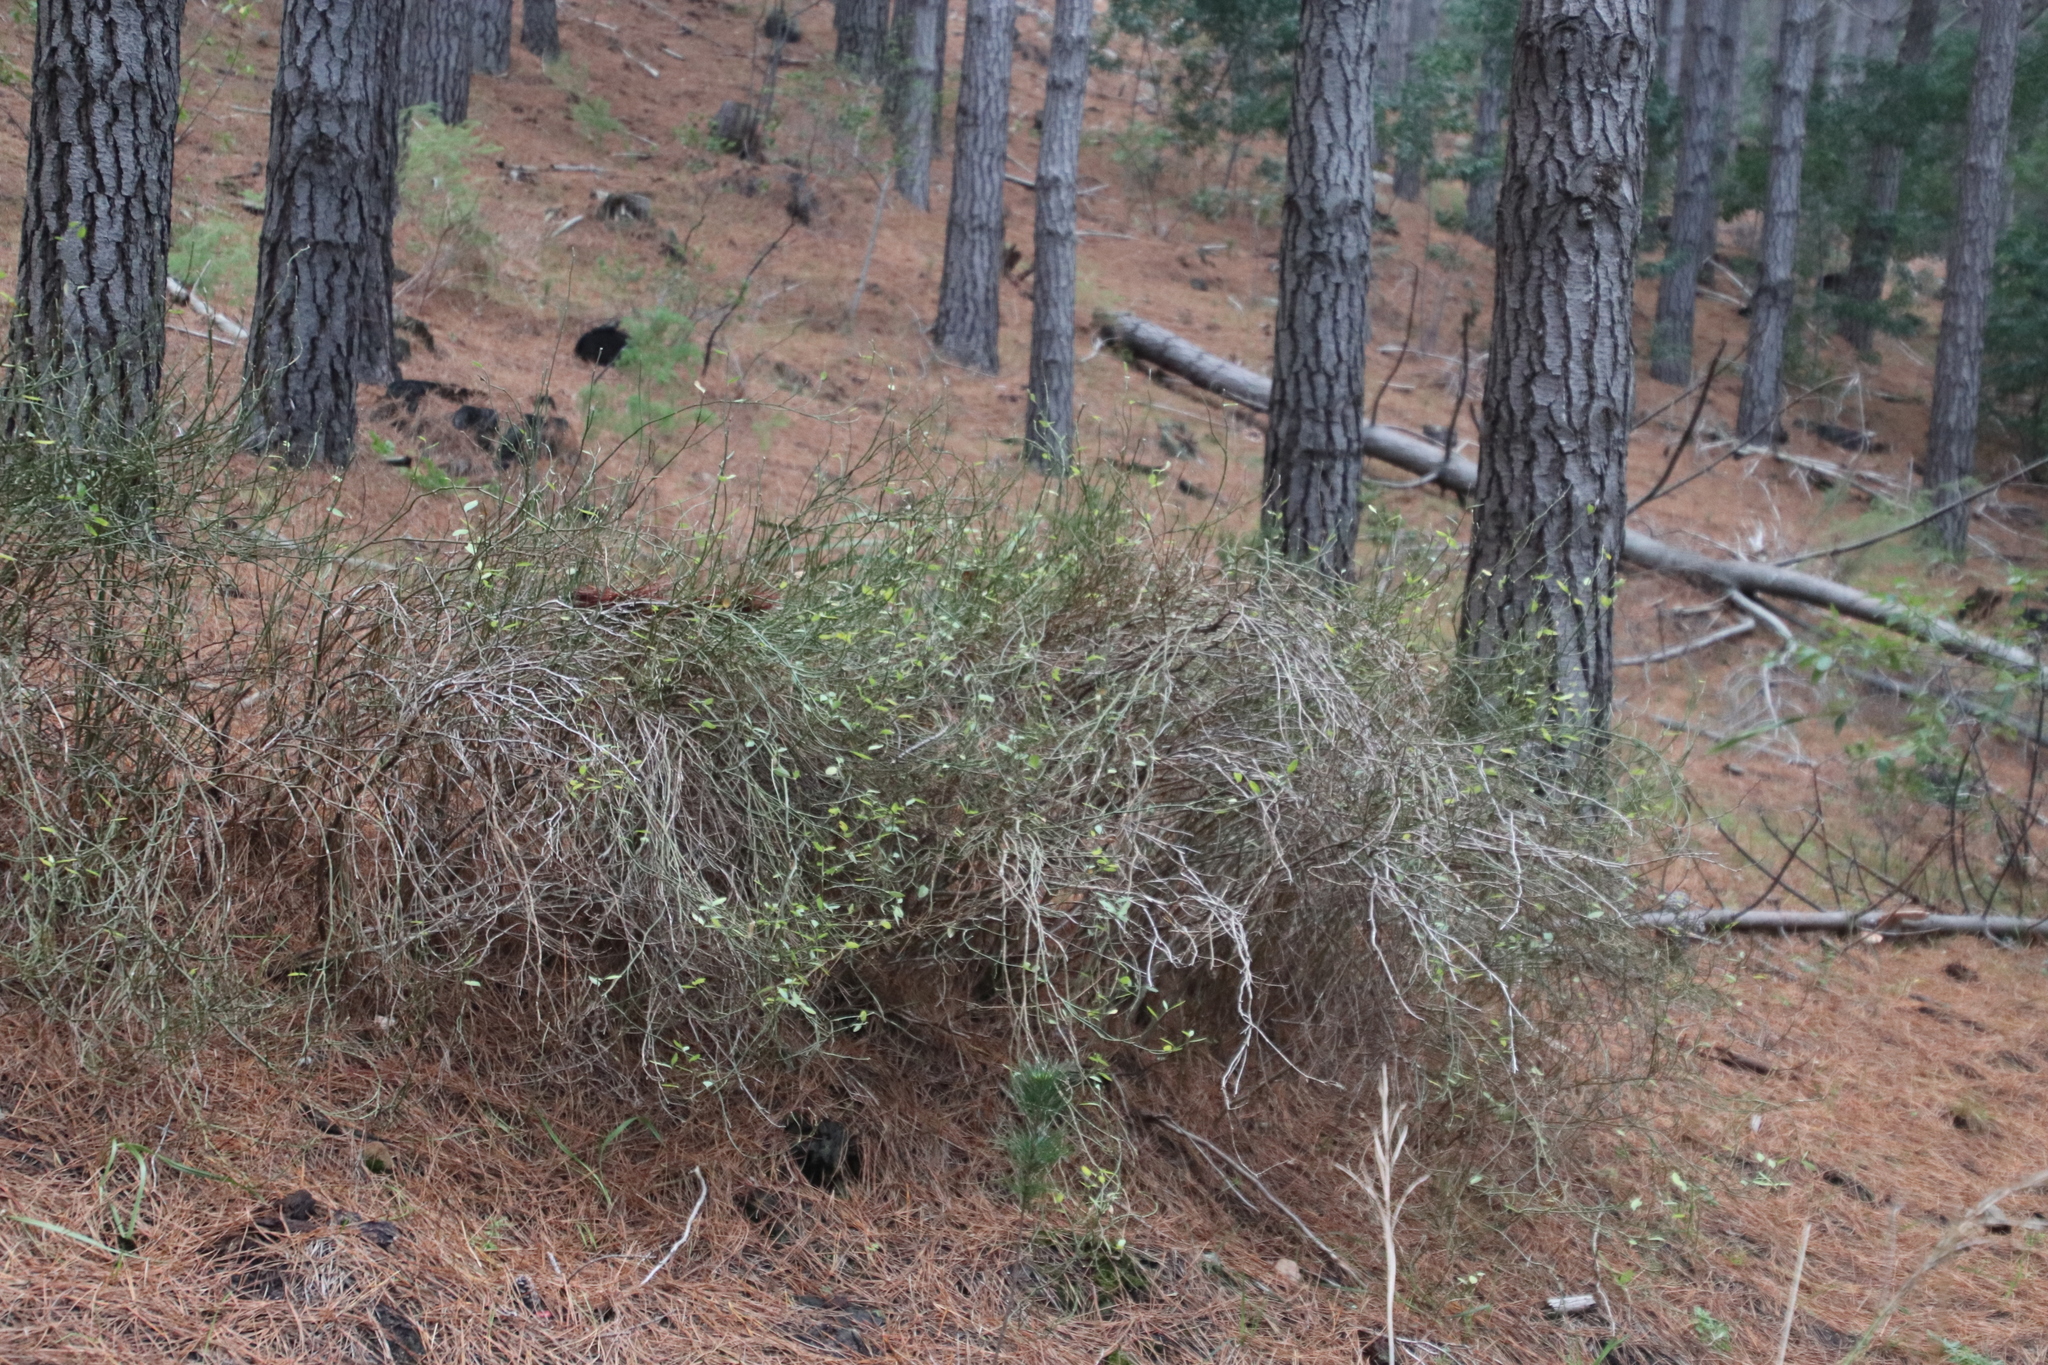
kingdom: Plantae
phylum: Tracheophyta
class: Magnoliopsida
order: Solanales
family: Montiniaceae
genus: Montinia
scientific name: Montinia caryophyllacea
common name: Wild clove-bush
